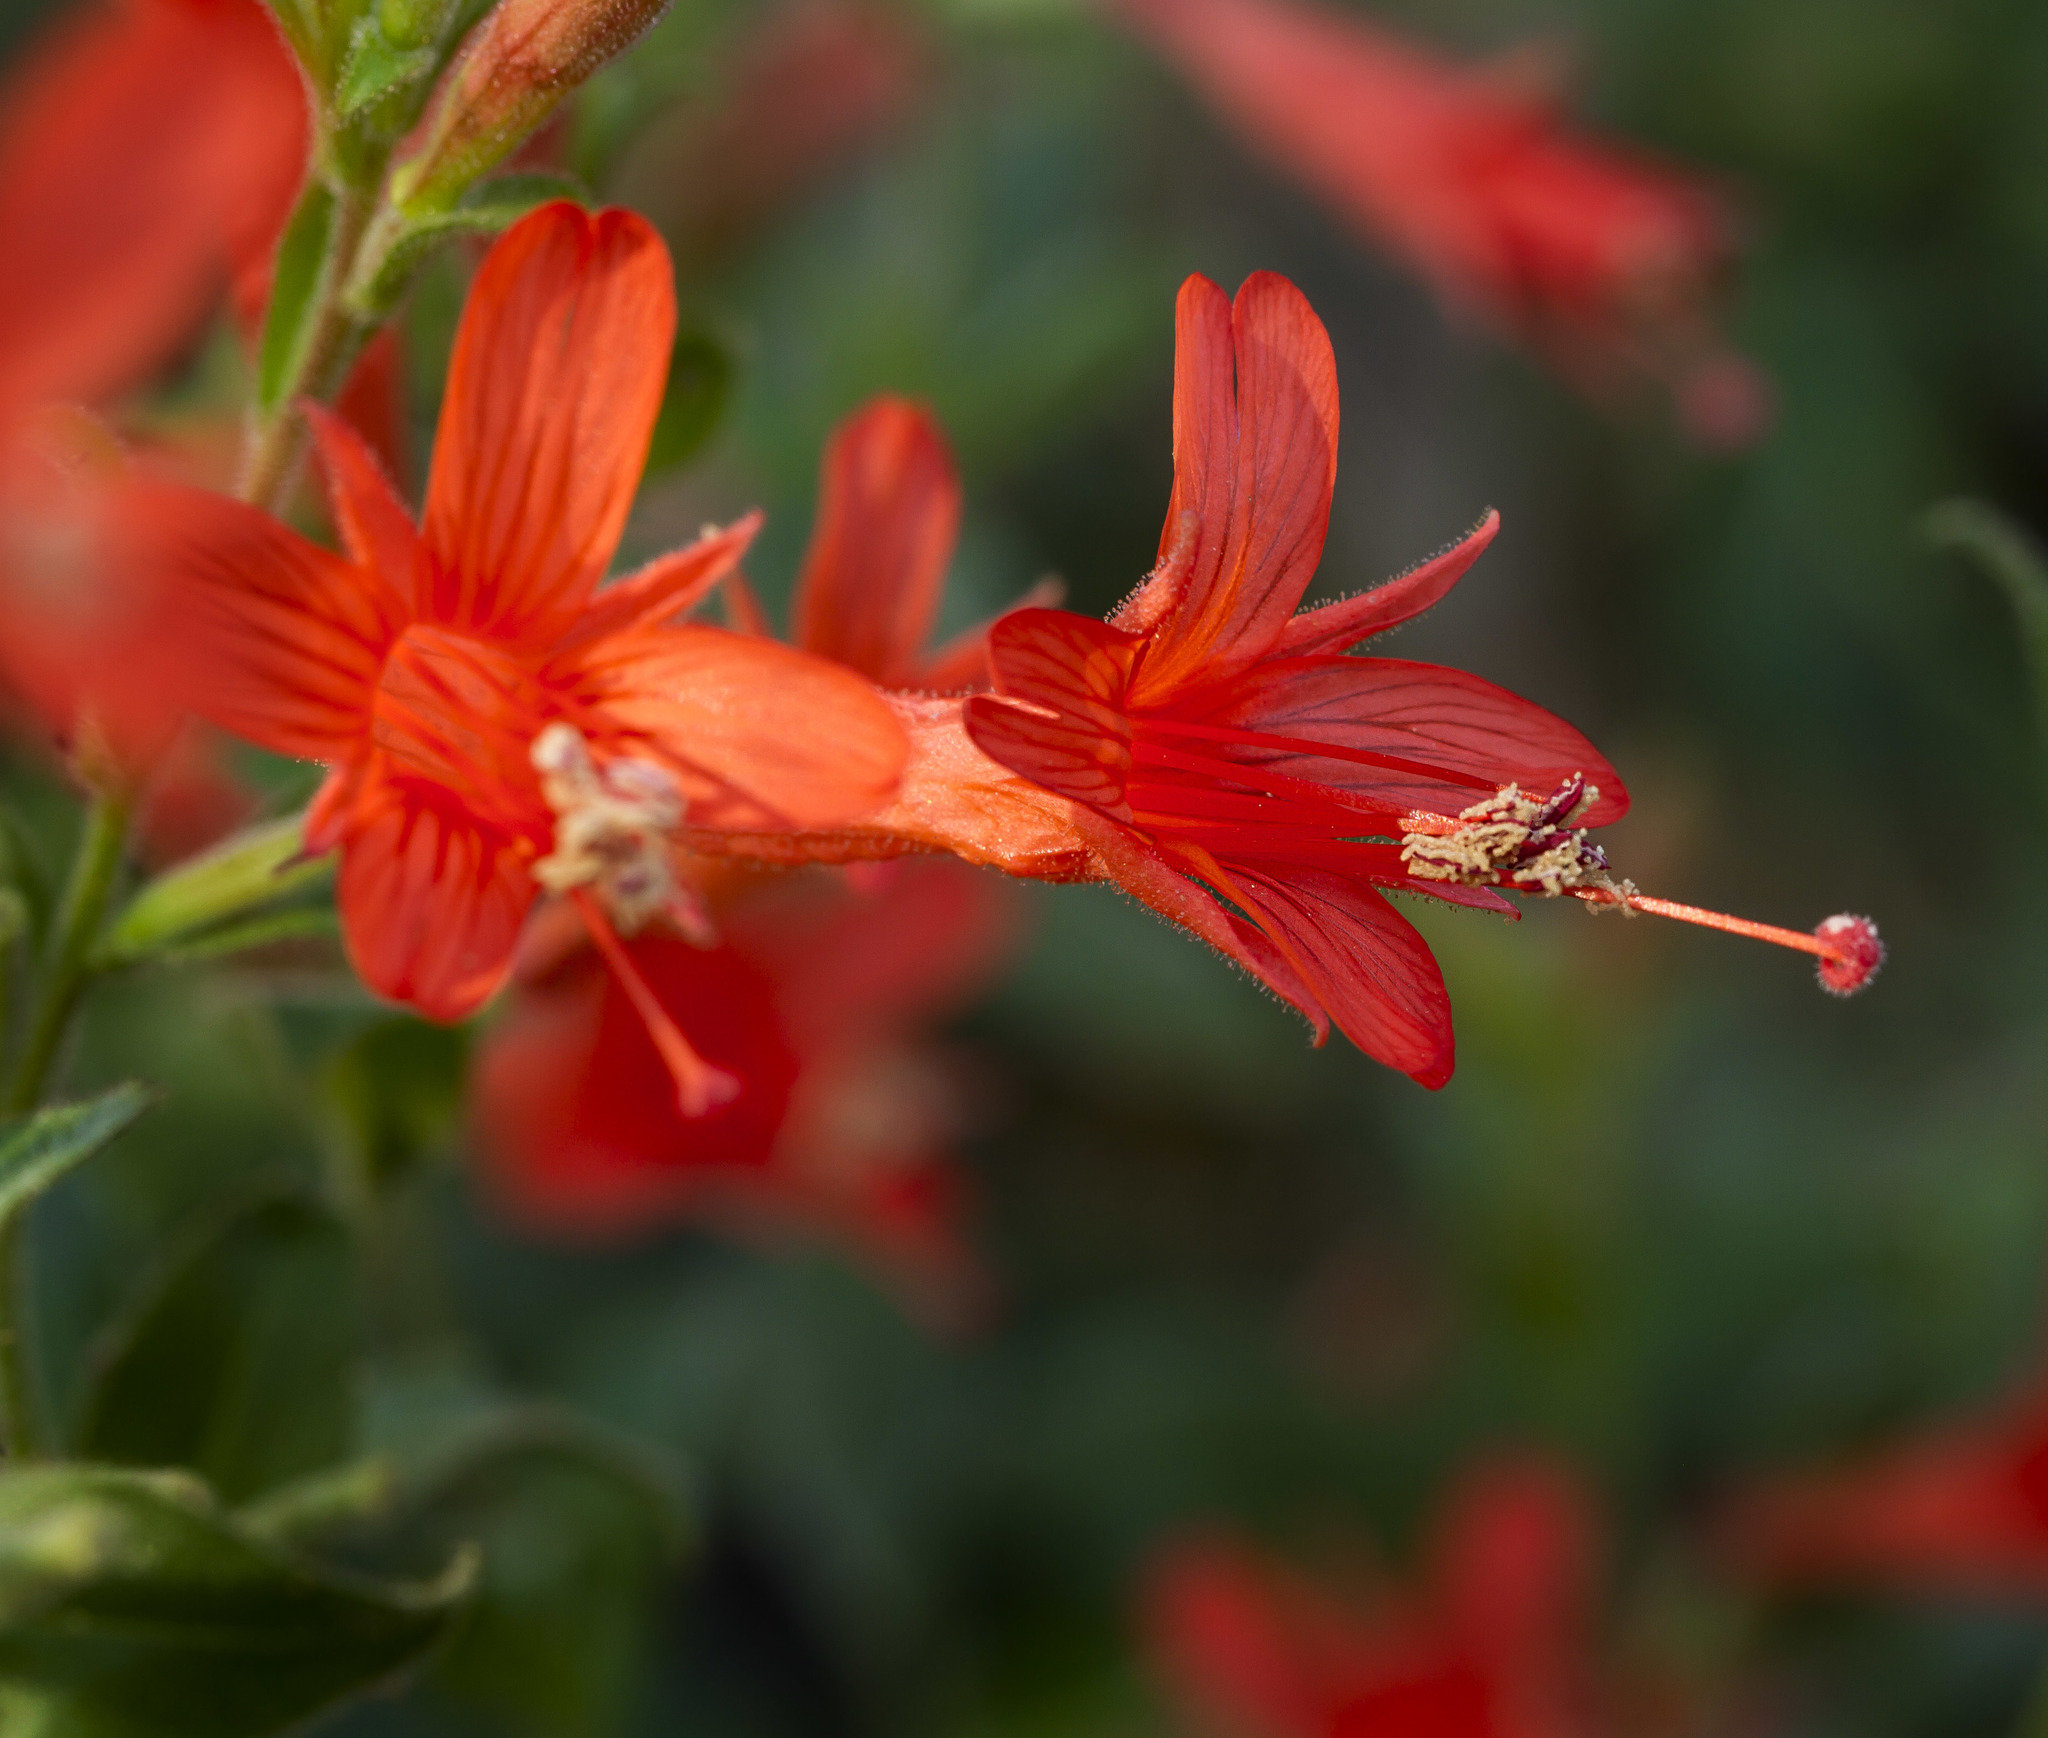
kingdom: Plantae
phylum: Tracheophyta
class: Magnoliopsida
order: Myrtales
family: Onagraceae
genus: Epilobium
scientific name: Epilobium canum
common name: California-fuchsia
